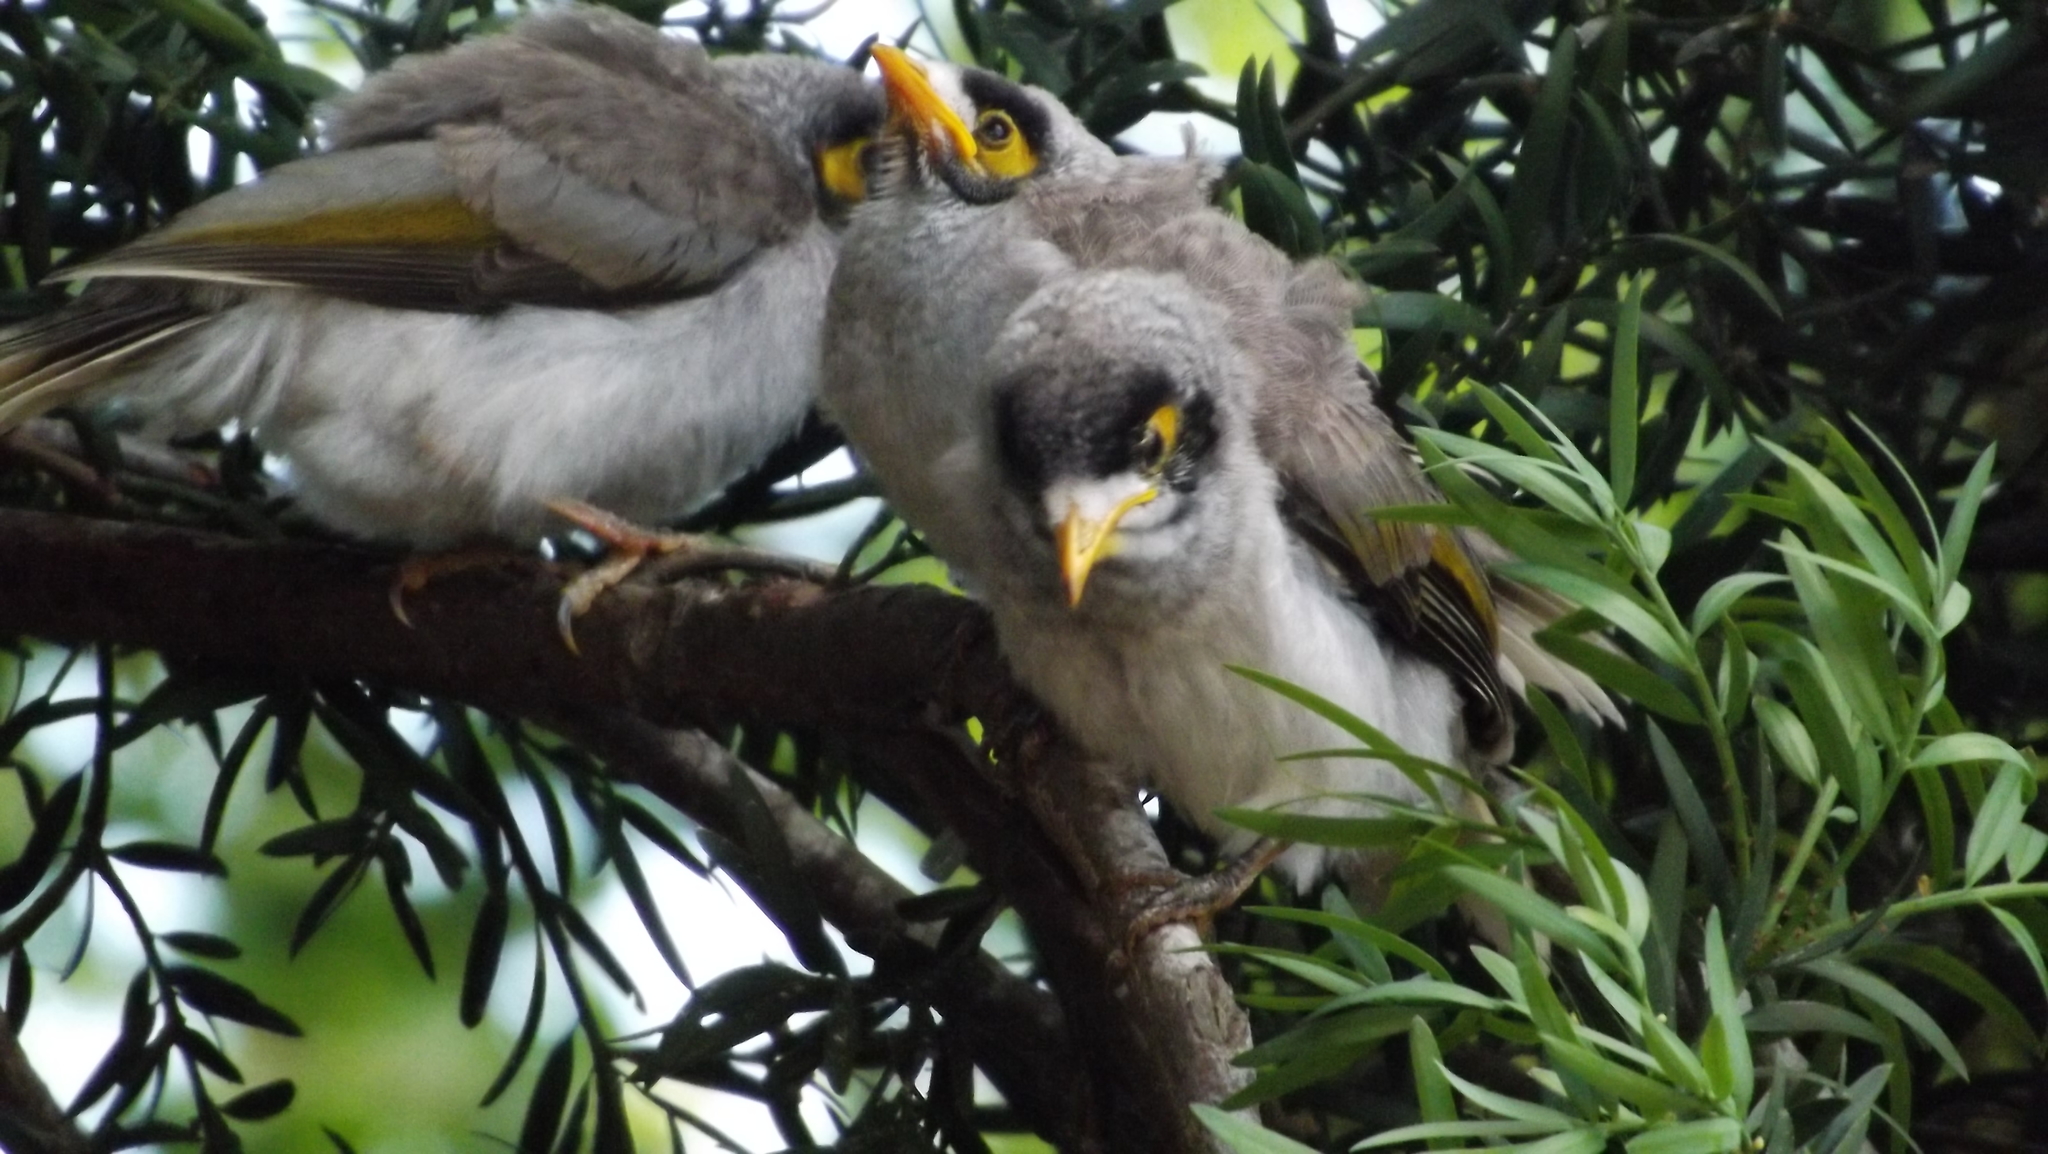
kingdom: Animalia
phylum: Chordata
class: Aves
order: Passeriformes
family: Meliphagidae
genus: Manorina
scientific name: Manorina melanocephala
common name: Noisy miner
